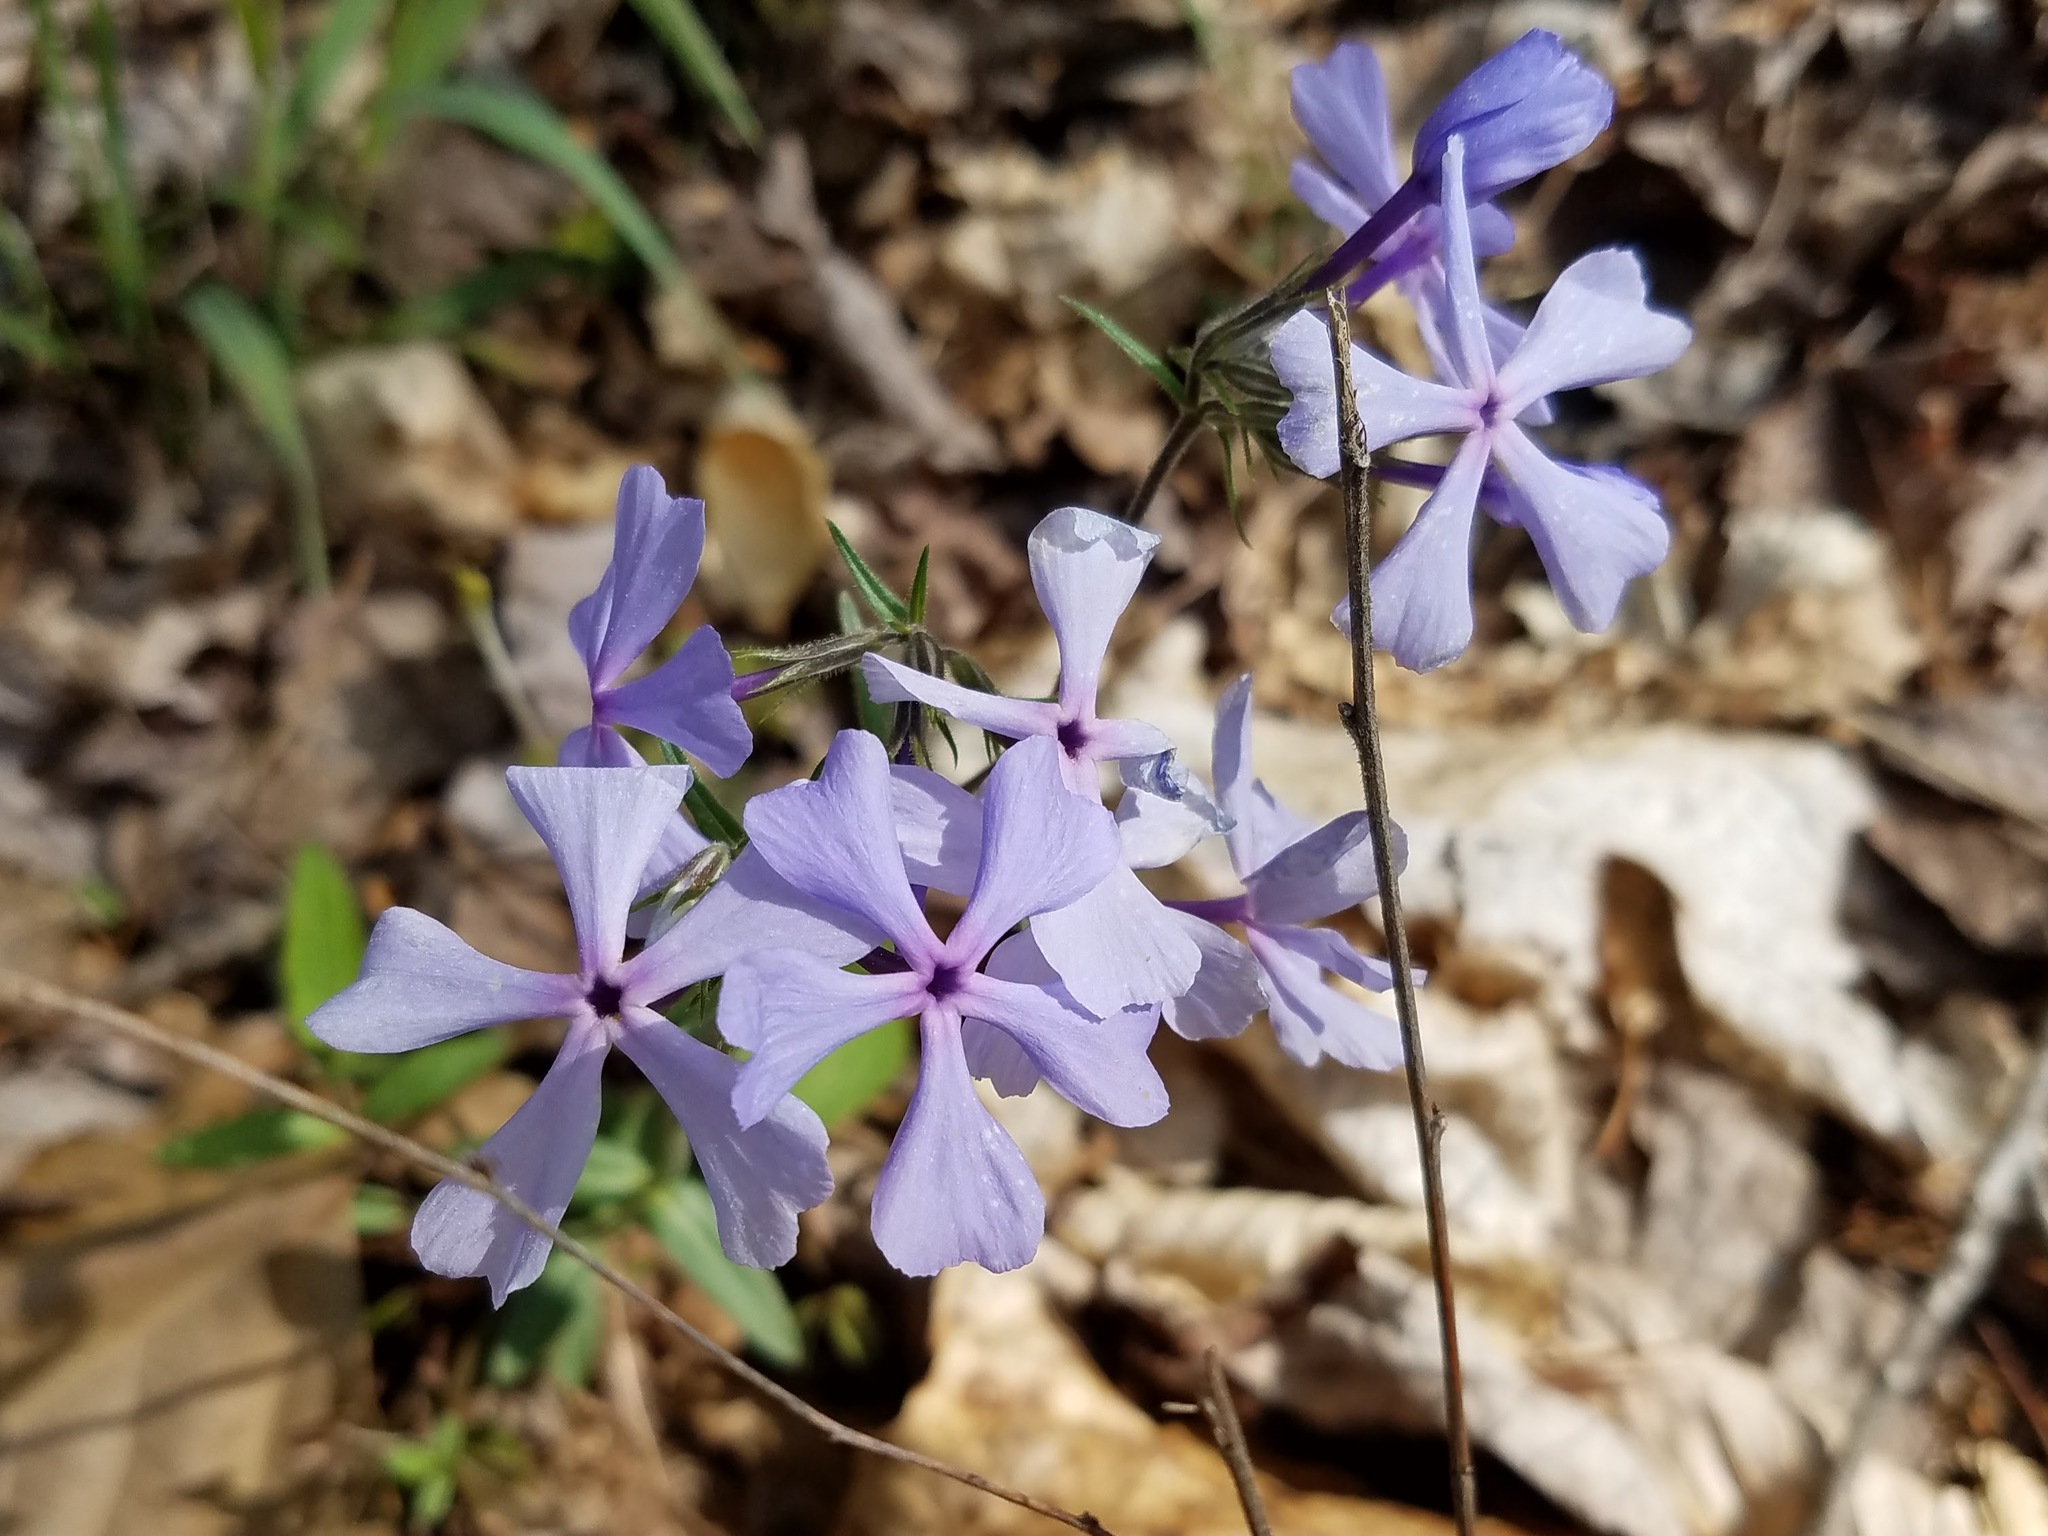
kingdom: Plantae
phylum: Tracheophyta
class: Magnoliopsida
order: Ericales
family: Polemoniaceae
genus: Phlox
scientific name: Phlox divaricata
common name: Blue phlox
